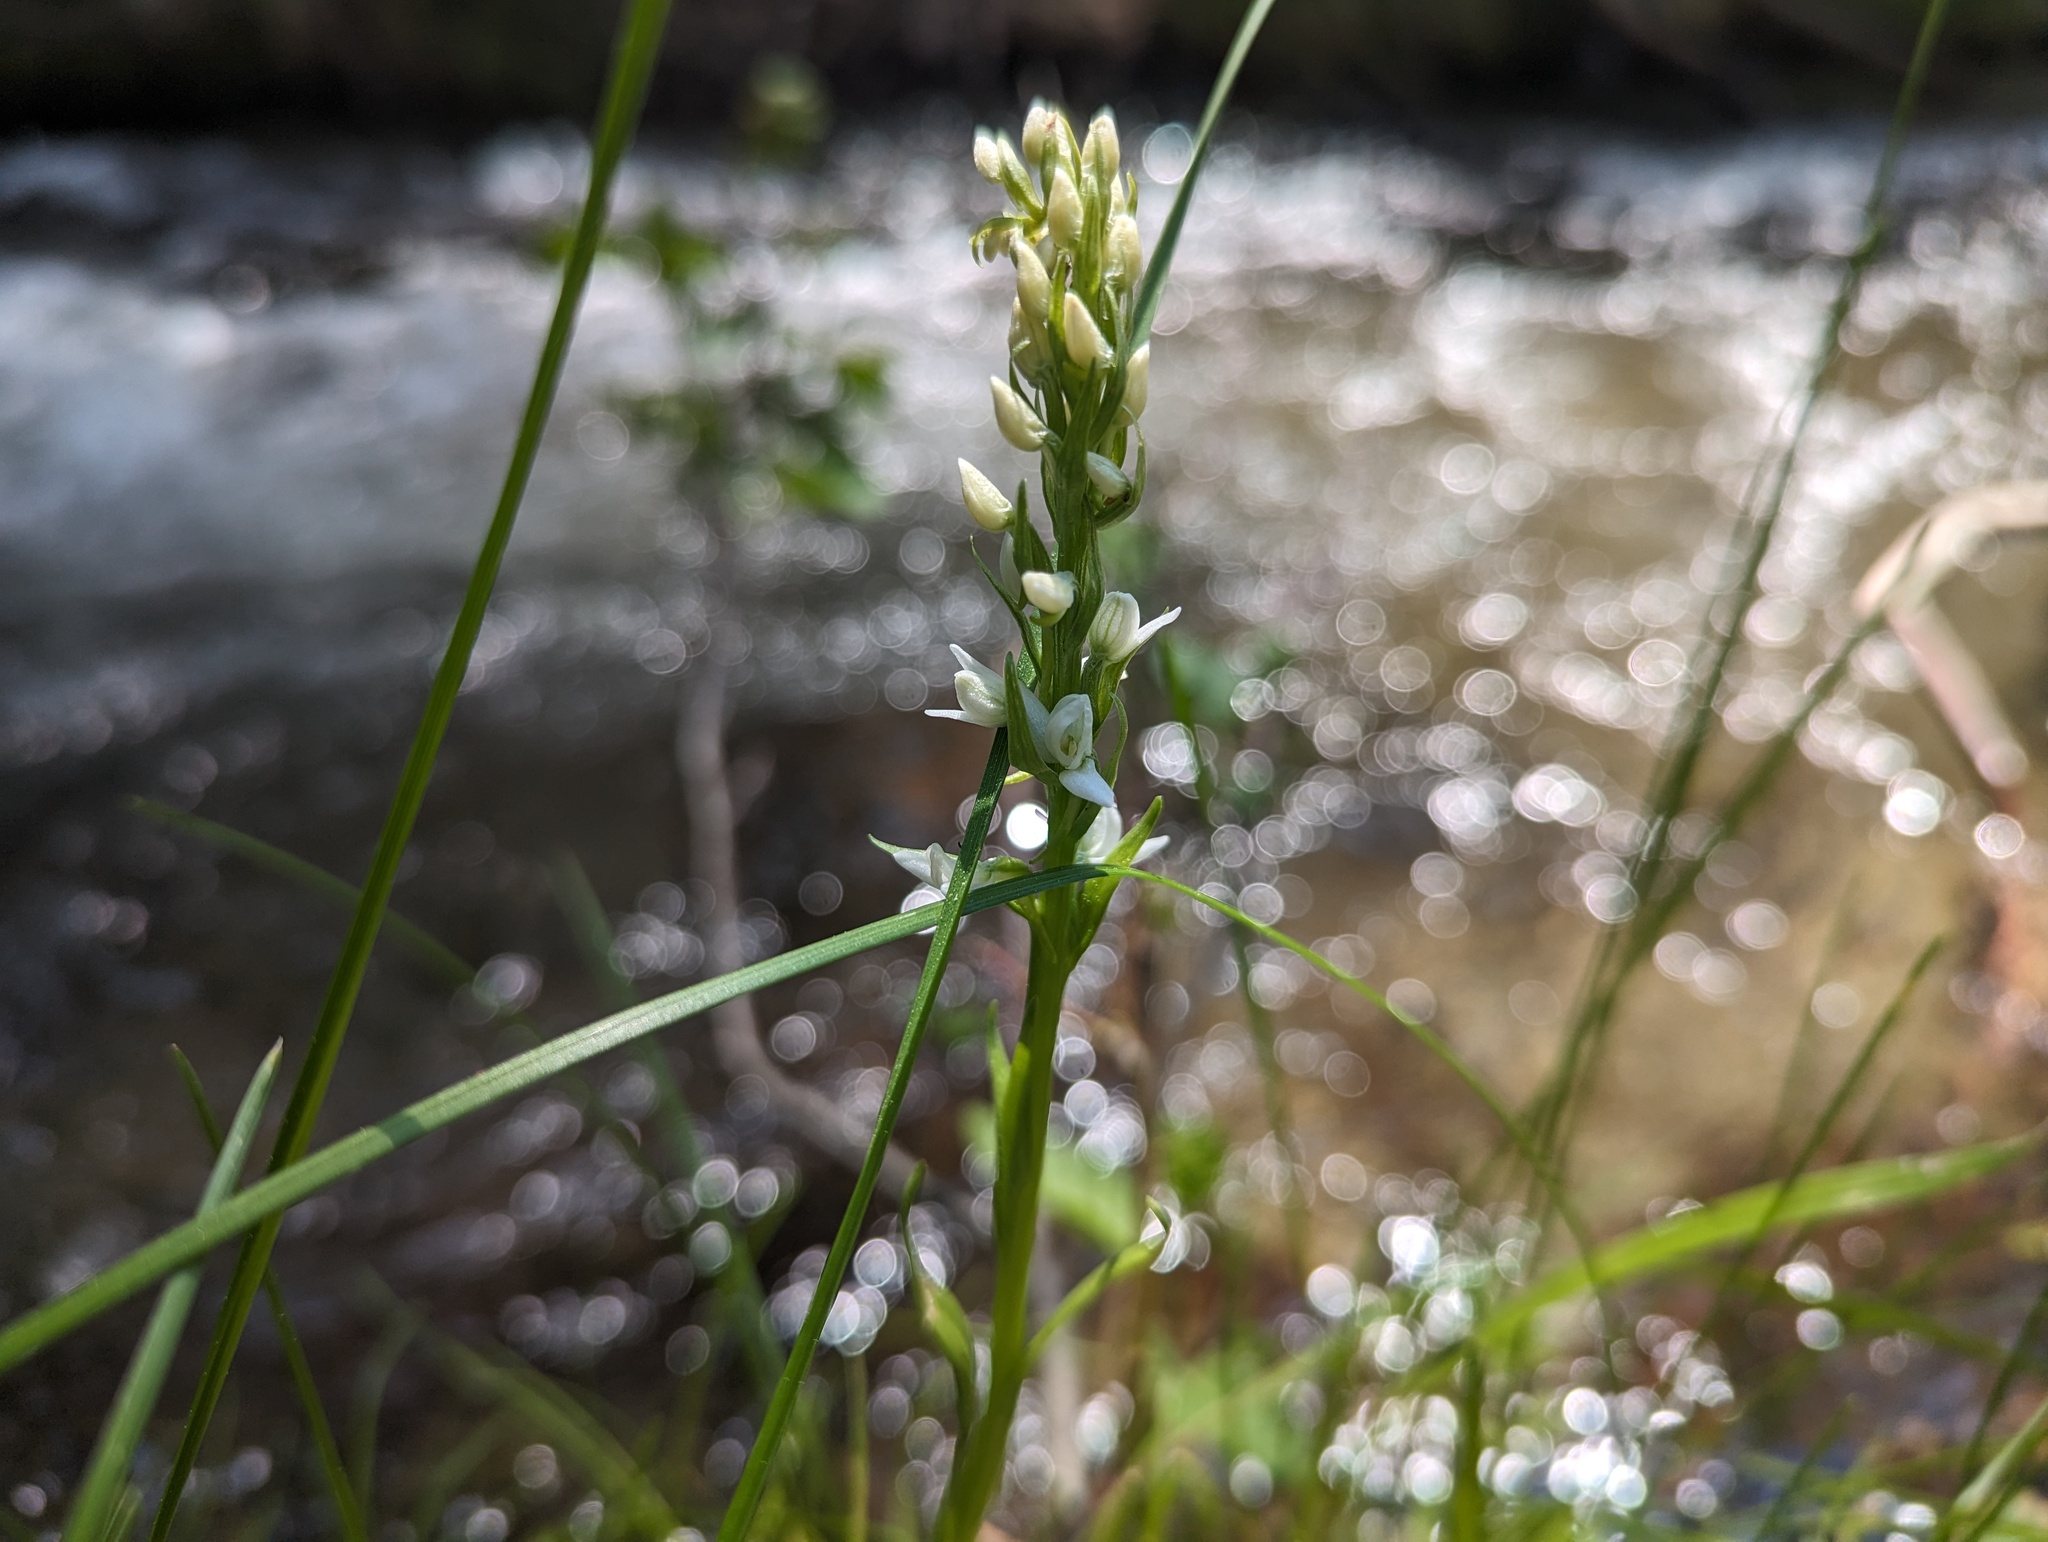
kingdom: Plantae
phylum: Tracheophyta
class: Liliopsida
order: Asparagales
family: Orchidaceae
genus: Platanthera
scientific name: Platanthera dilatata
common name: Bog candles
